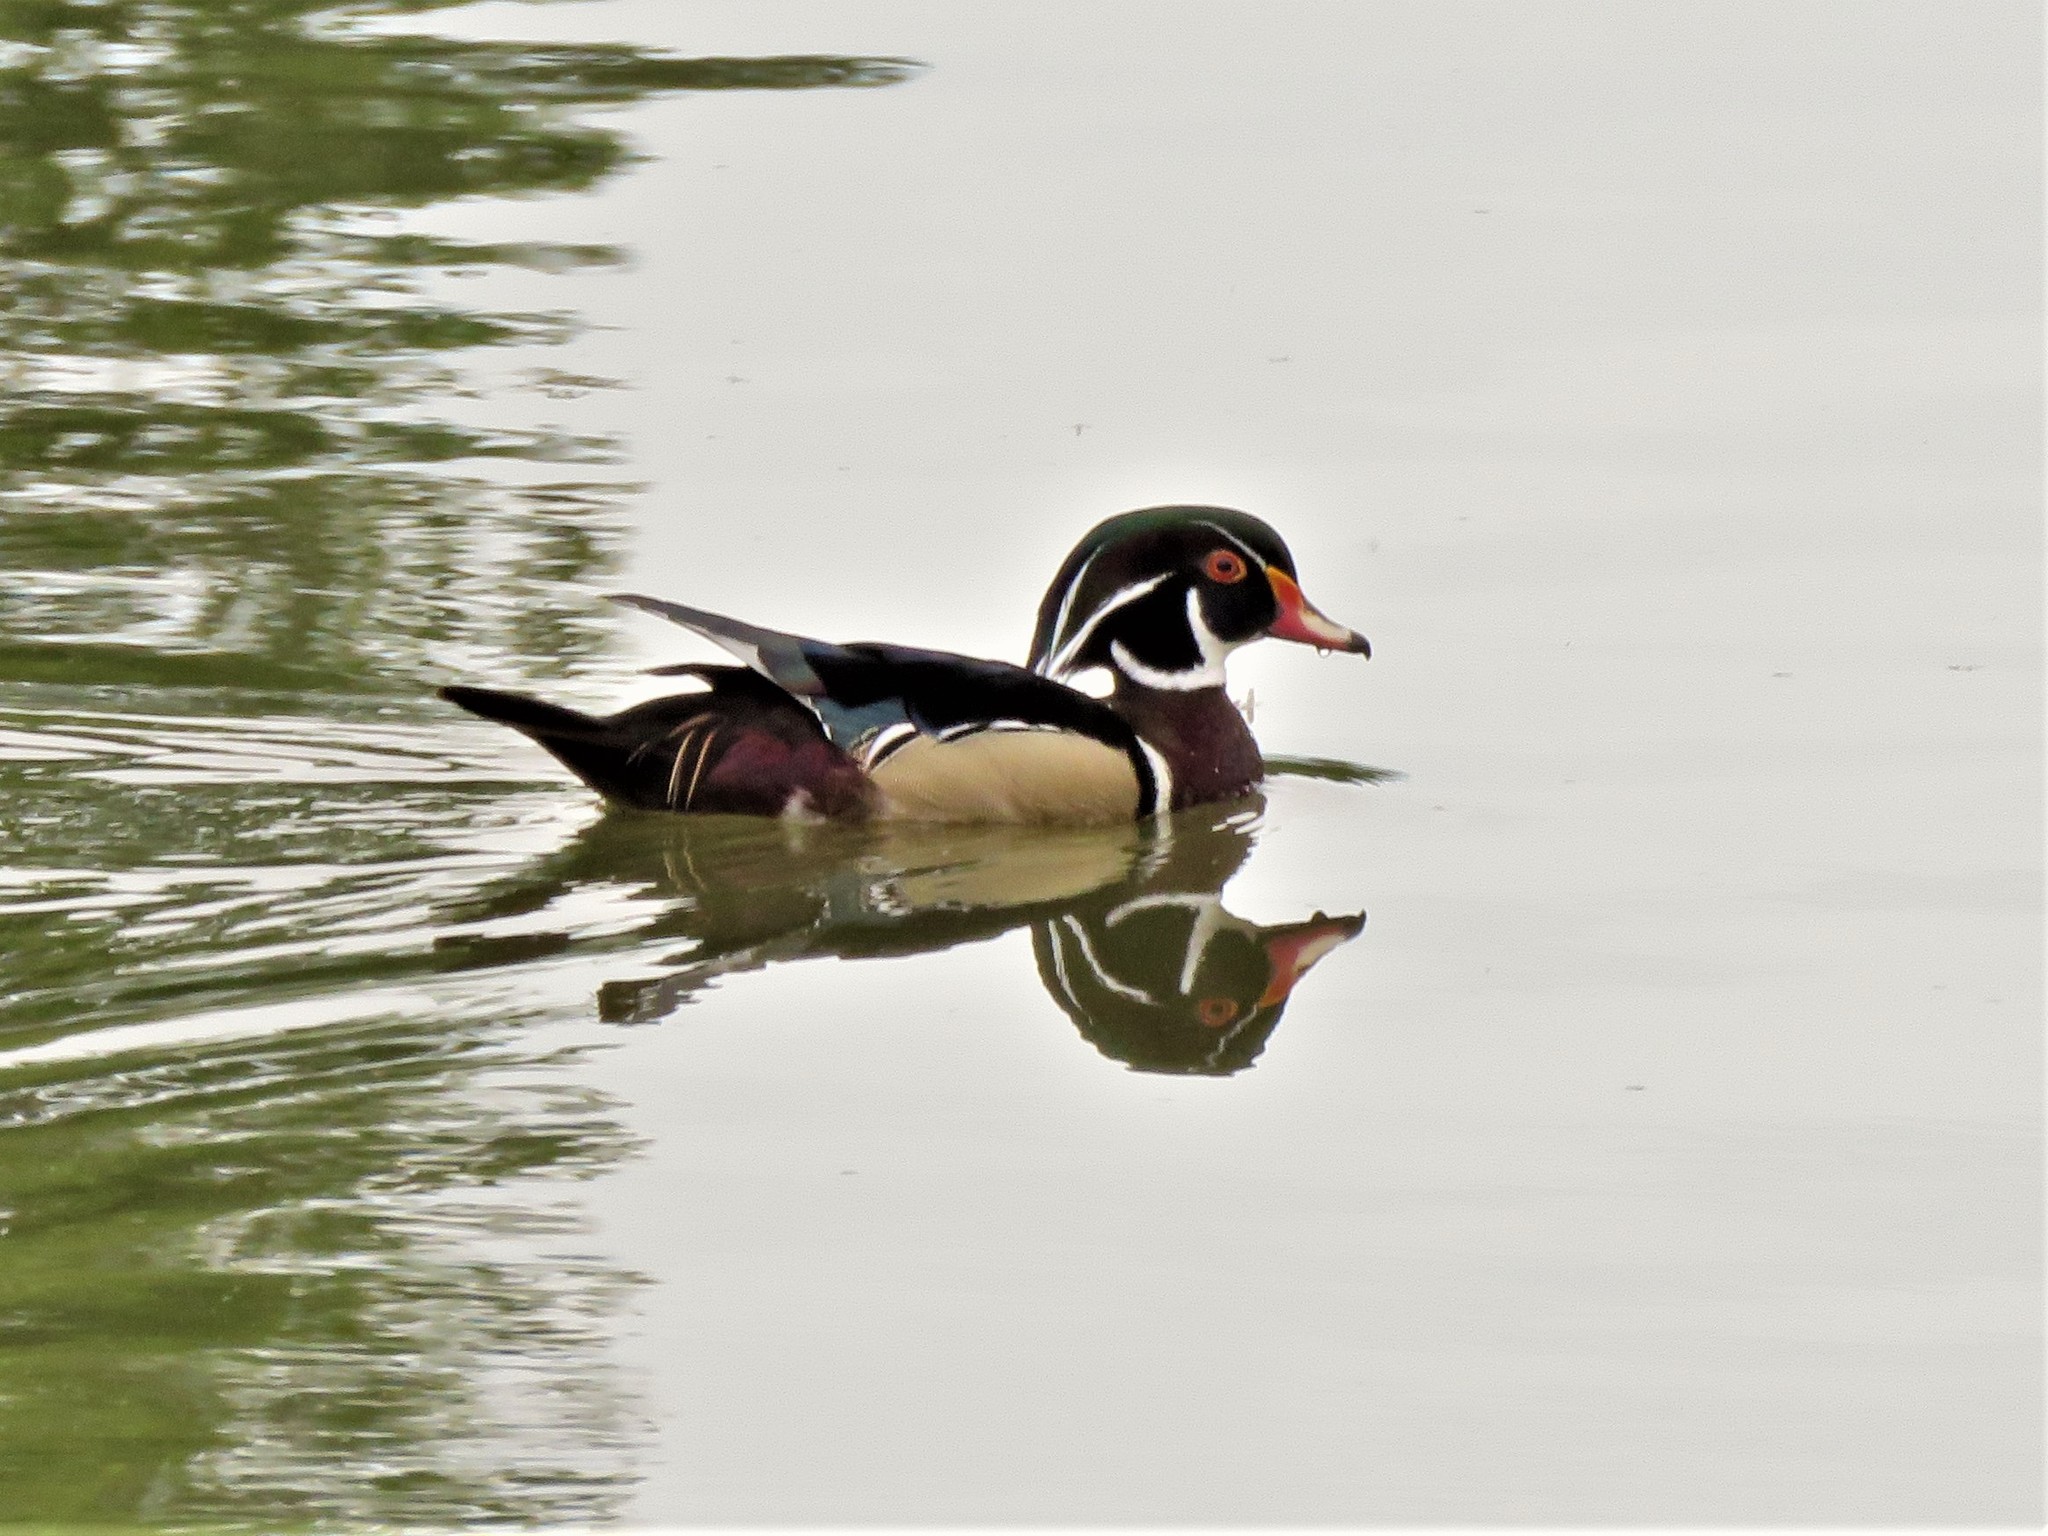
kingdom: Animalia
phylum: Chordata
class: Aves
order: Anseriformes
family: Anatidae
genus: Aix
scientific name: Aix sponsa
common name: Wood duck
